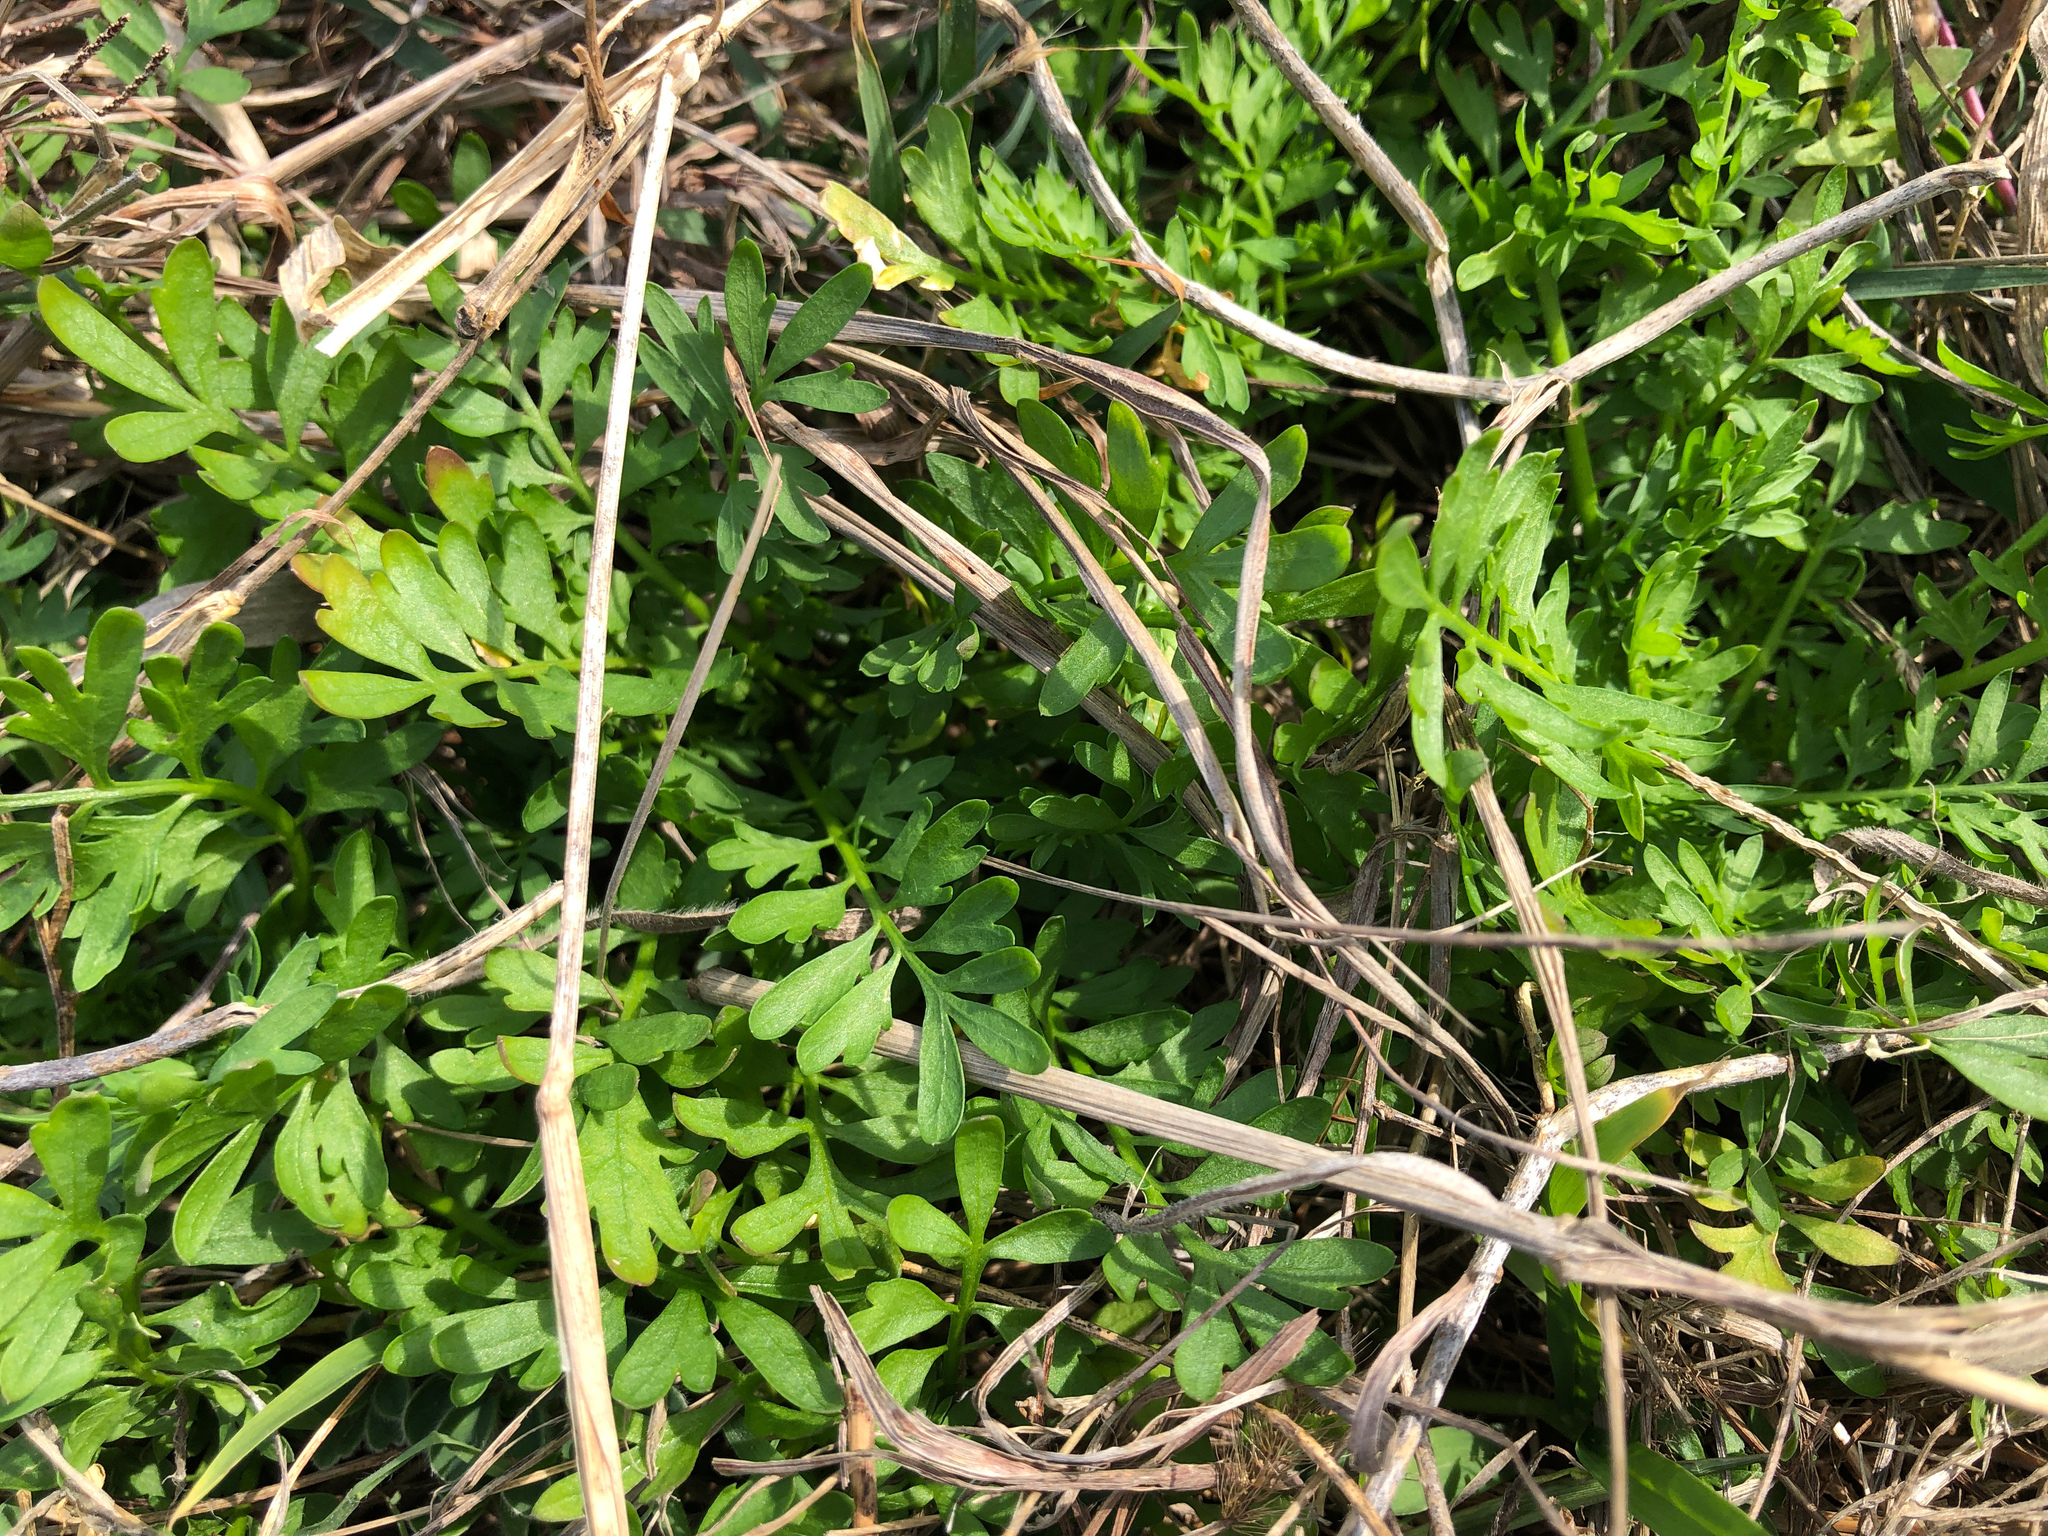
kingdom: Plantae
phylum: Tracheophyta
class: Magnoliopsida
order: Brassicales
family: Brassicaceae
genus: Lepidium
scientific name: Lepidium virginicum
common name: Least pepperwort
